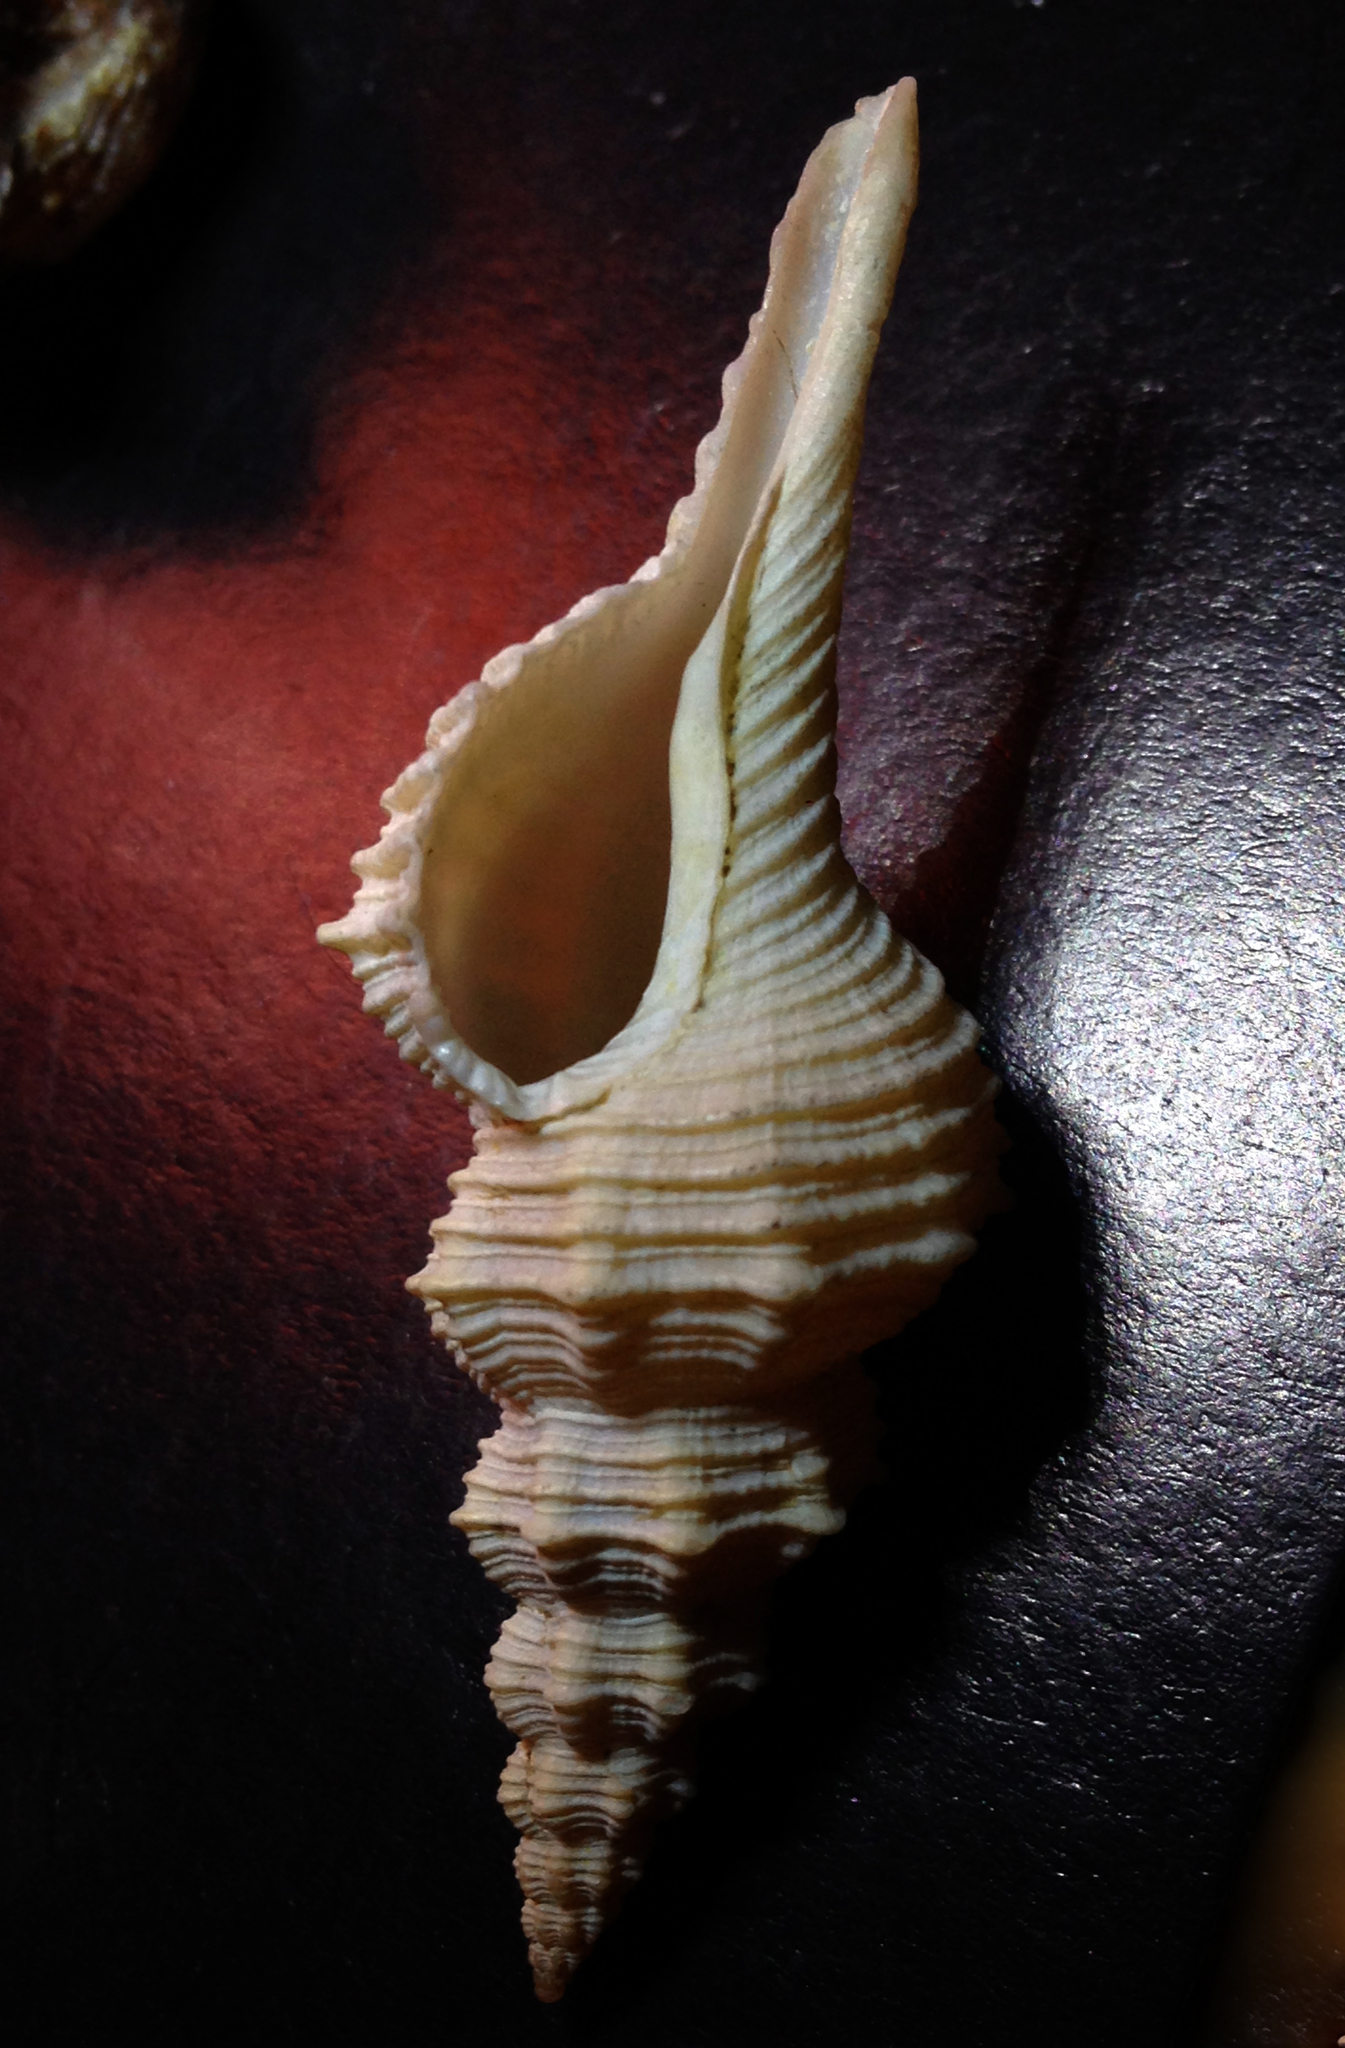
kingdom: Animalia
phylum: Mollusca
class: Gastropoda
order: Neogastropoda
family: Fasciolariidae
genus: Pseudofusus
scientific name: Pseudofusus rostratus
